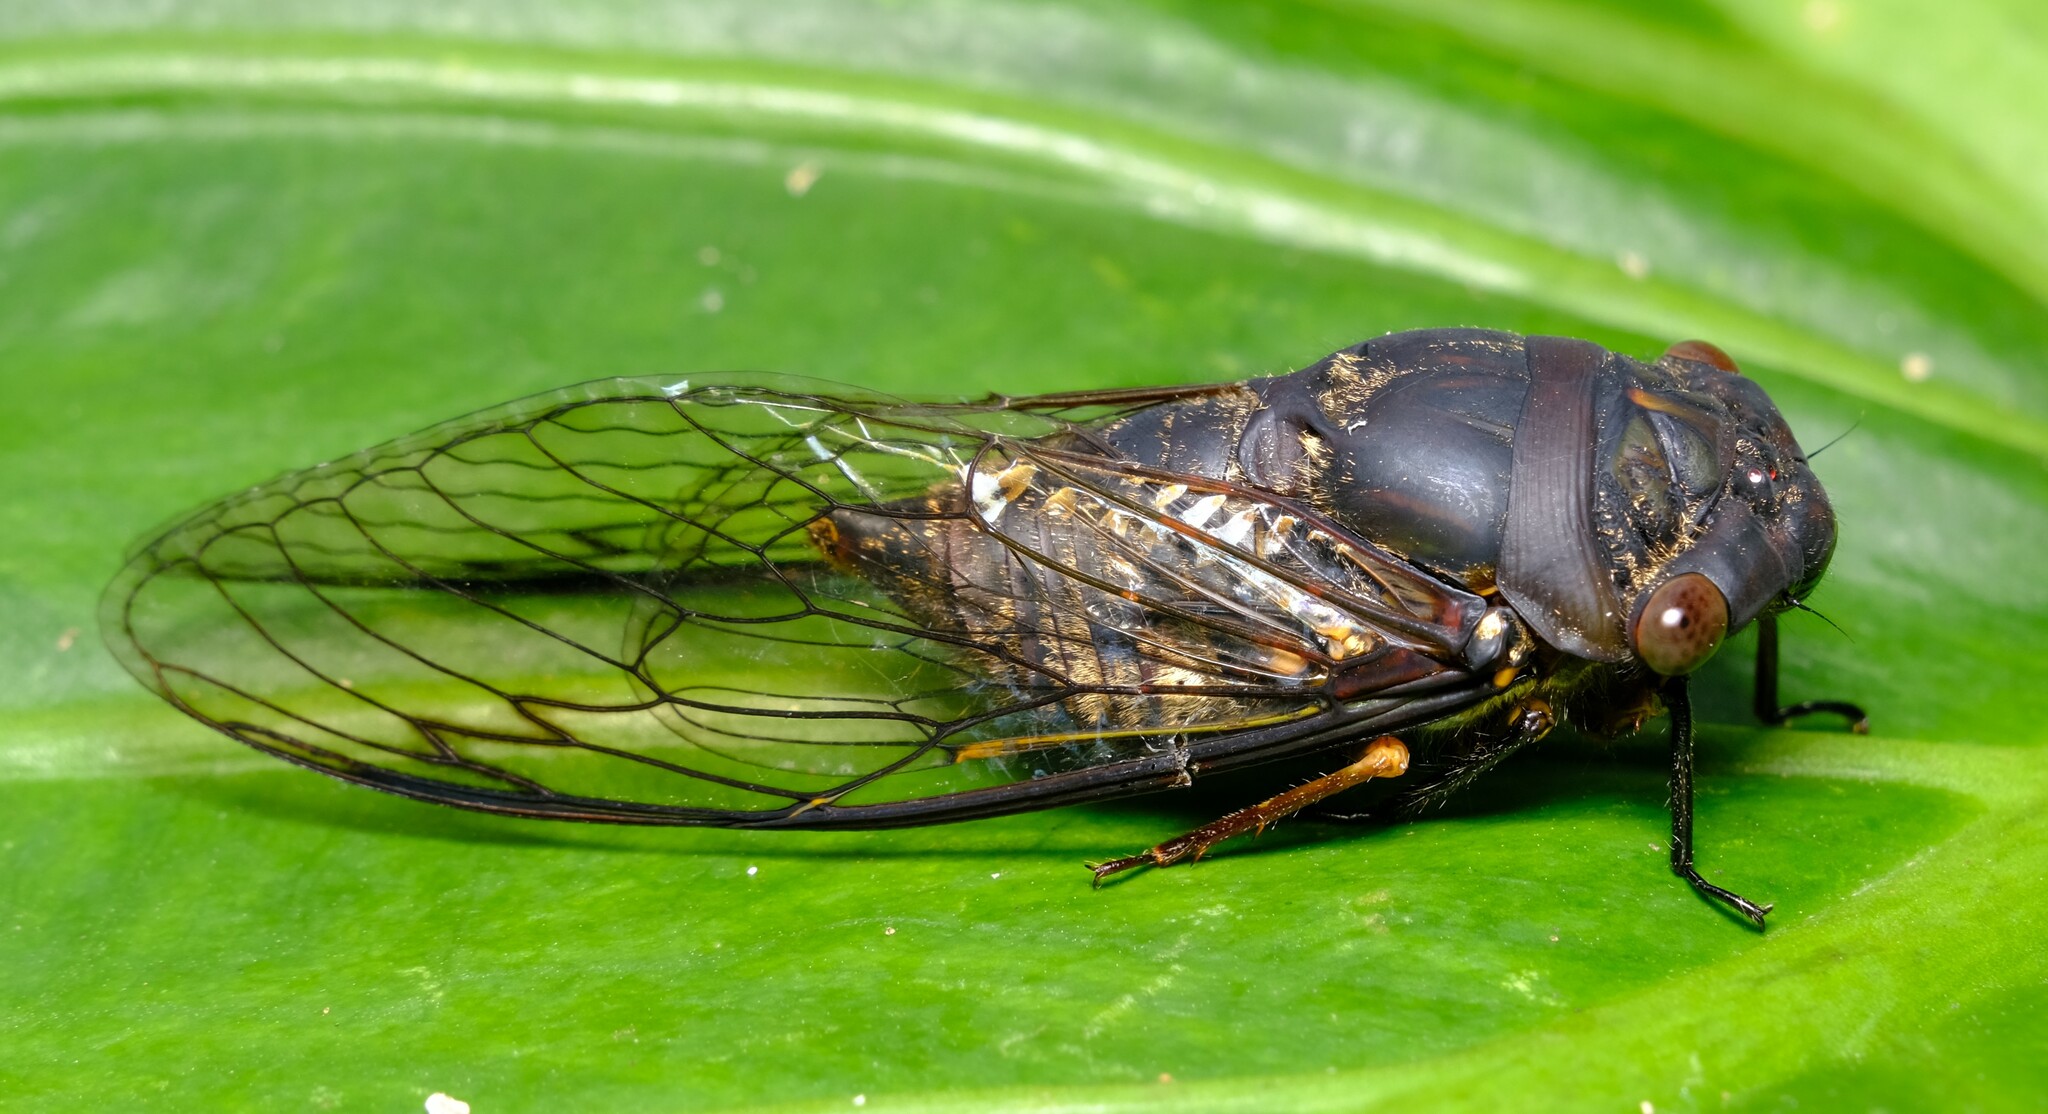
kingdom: Animalia
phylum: Arthropoda
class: Insecta
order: Hemiptera
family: Cicadidae
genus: Psaltoda
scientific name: Psaltoda plaga
